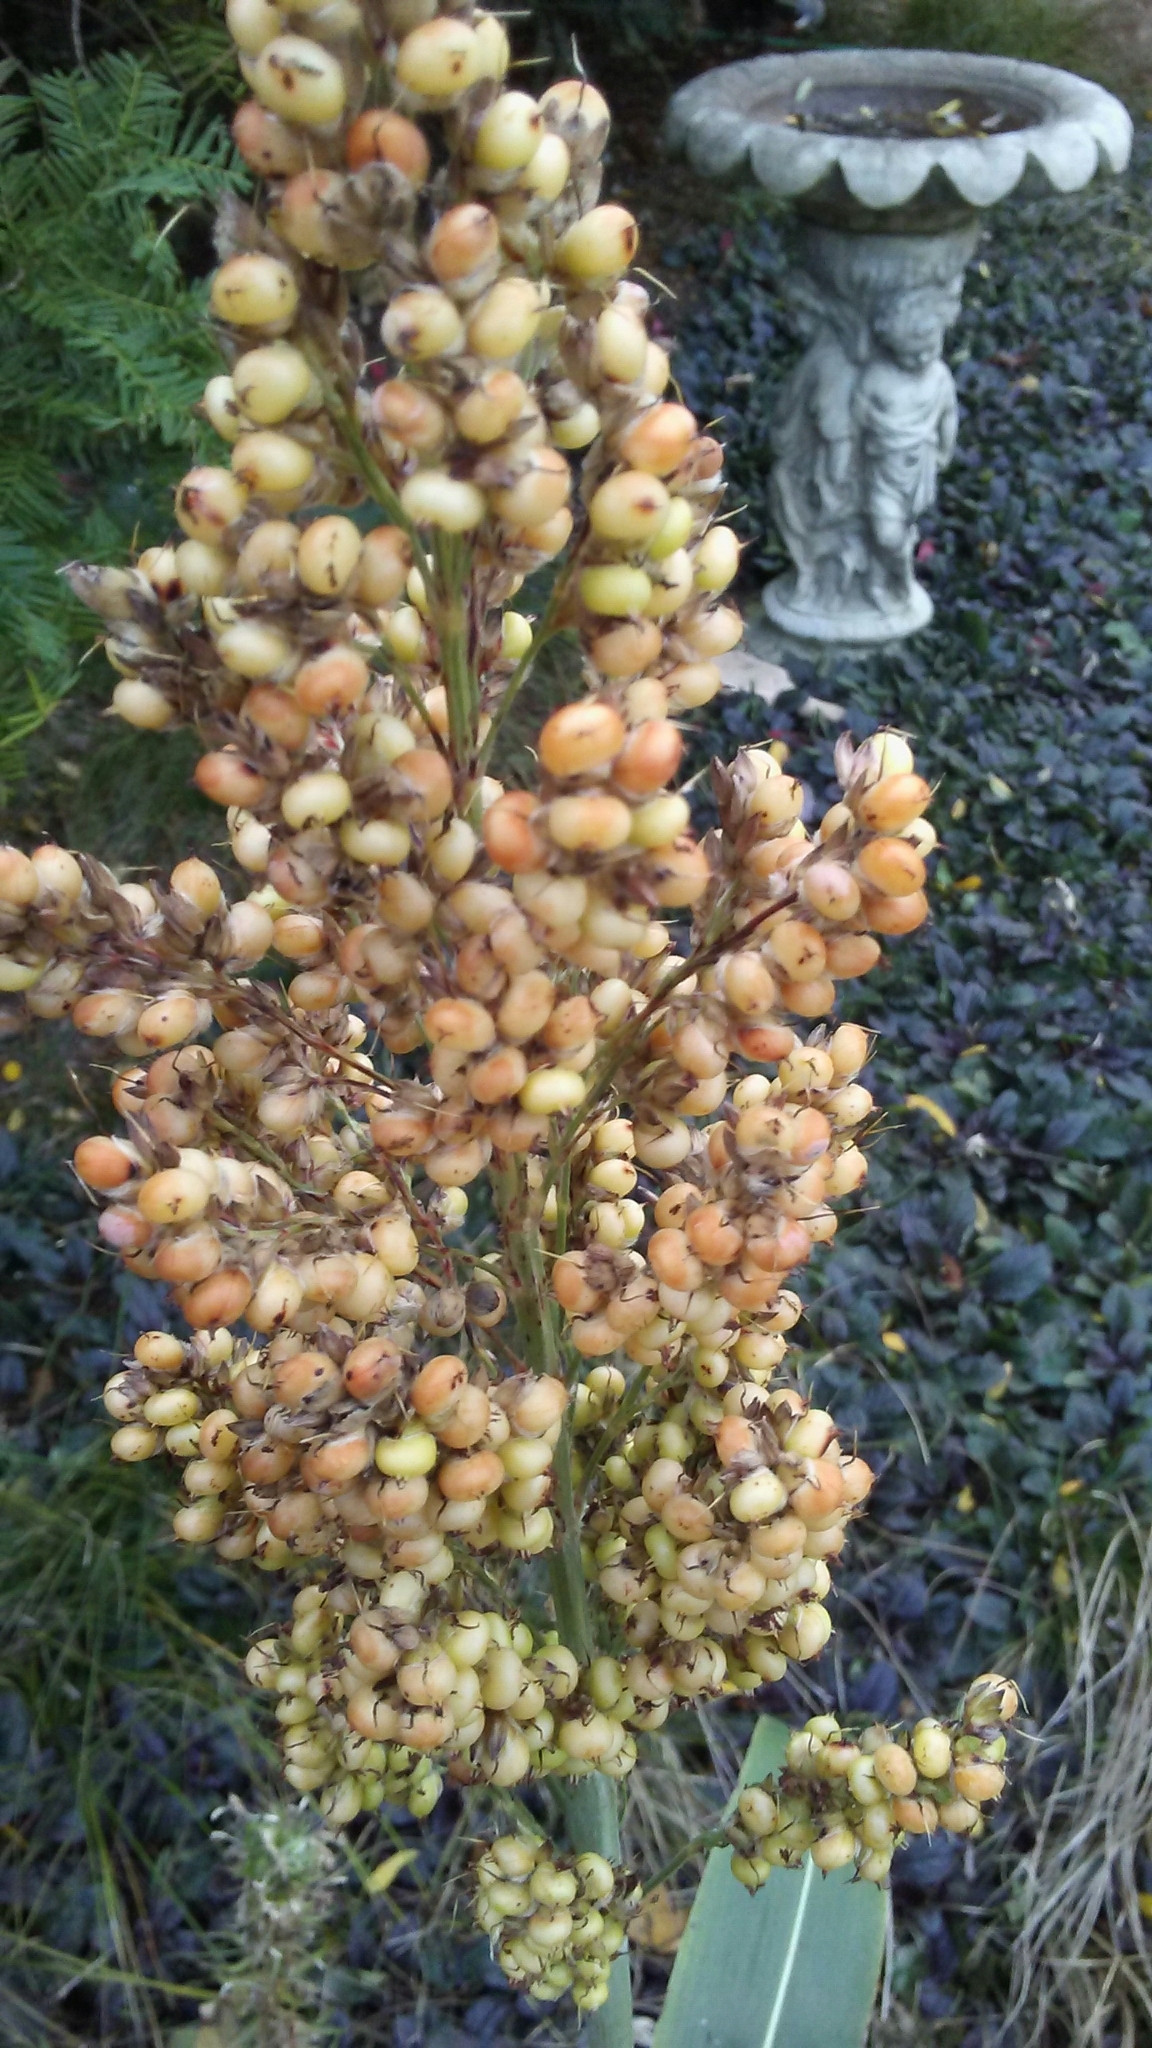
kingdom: Plantae
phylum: Tracheophyta
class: Liliopsida
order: Poales
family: Poaceae
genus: Sorghum
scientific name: Sorghum bicolor
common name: Sorghum
